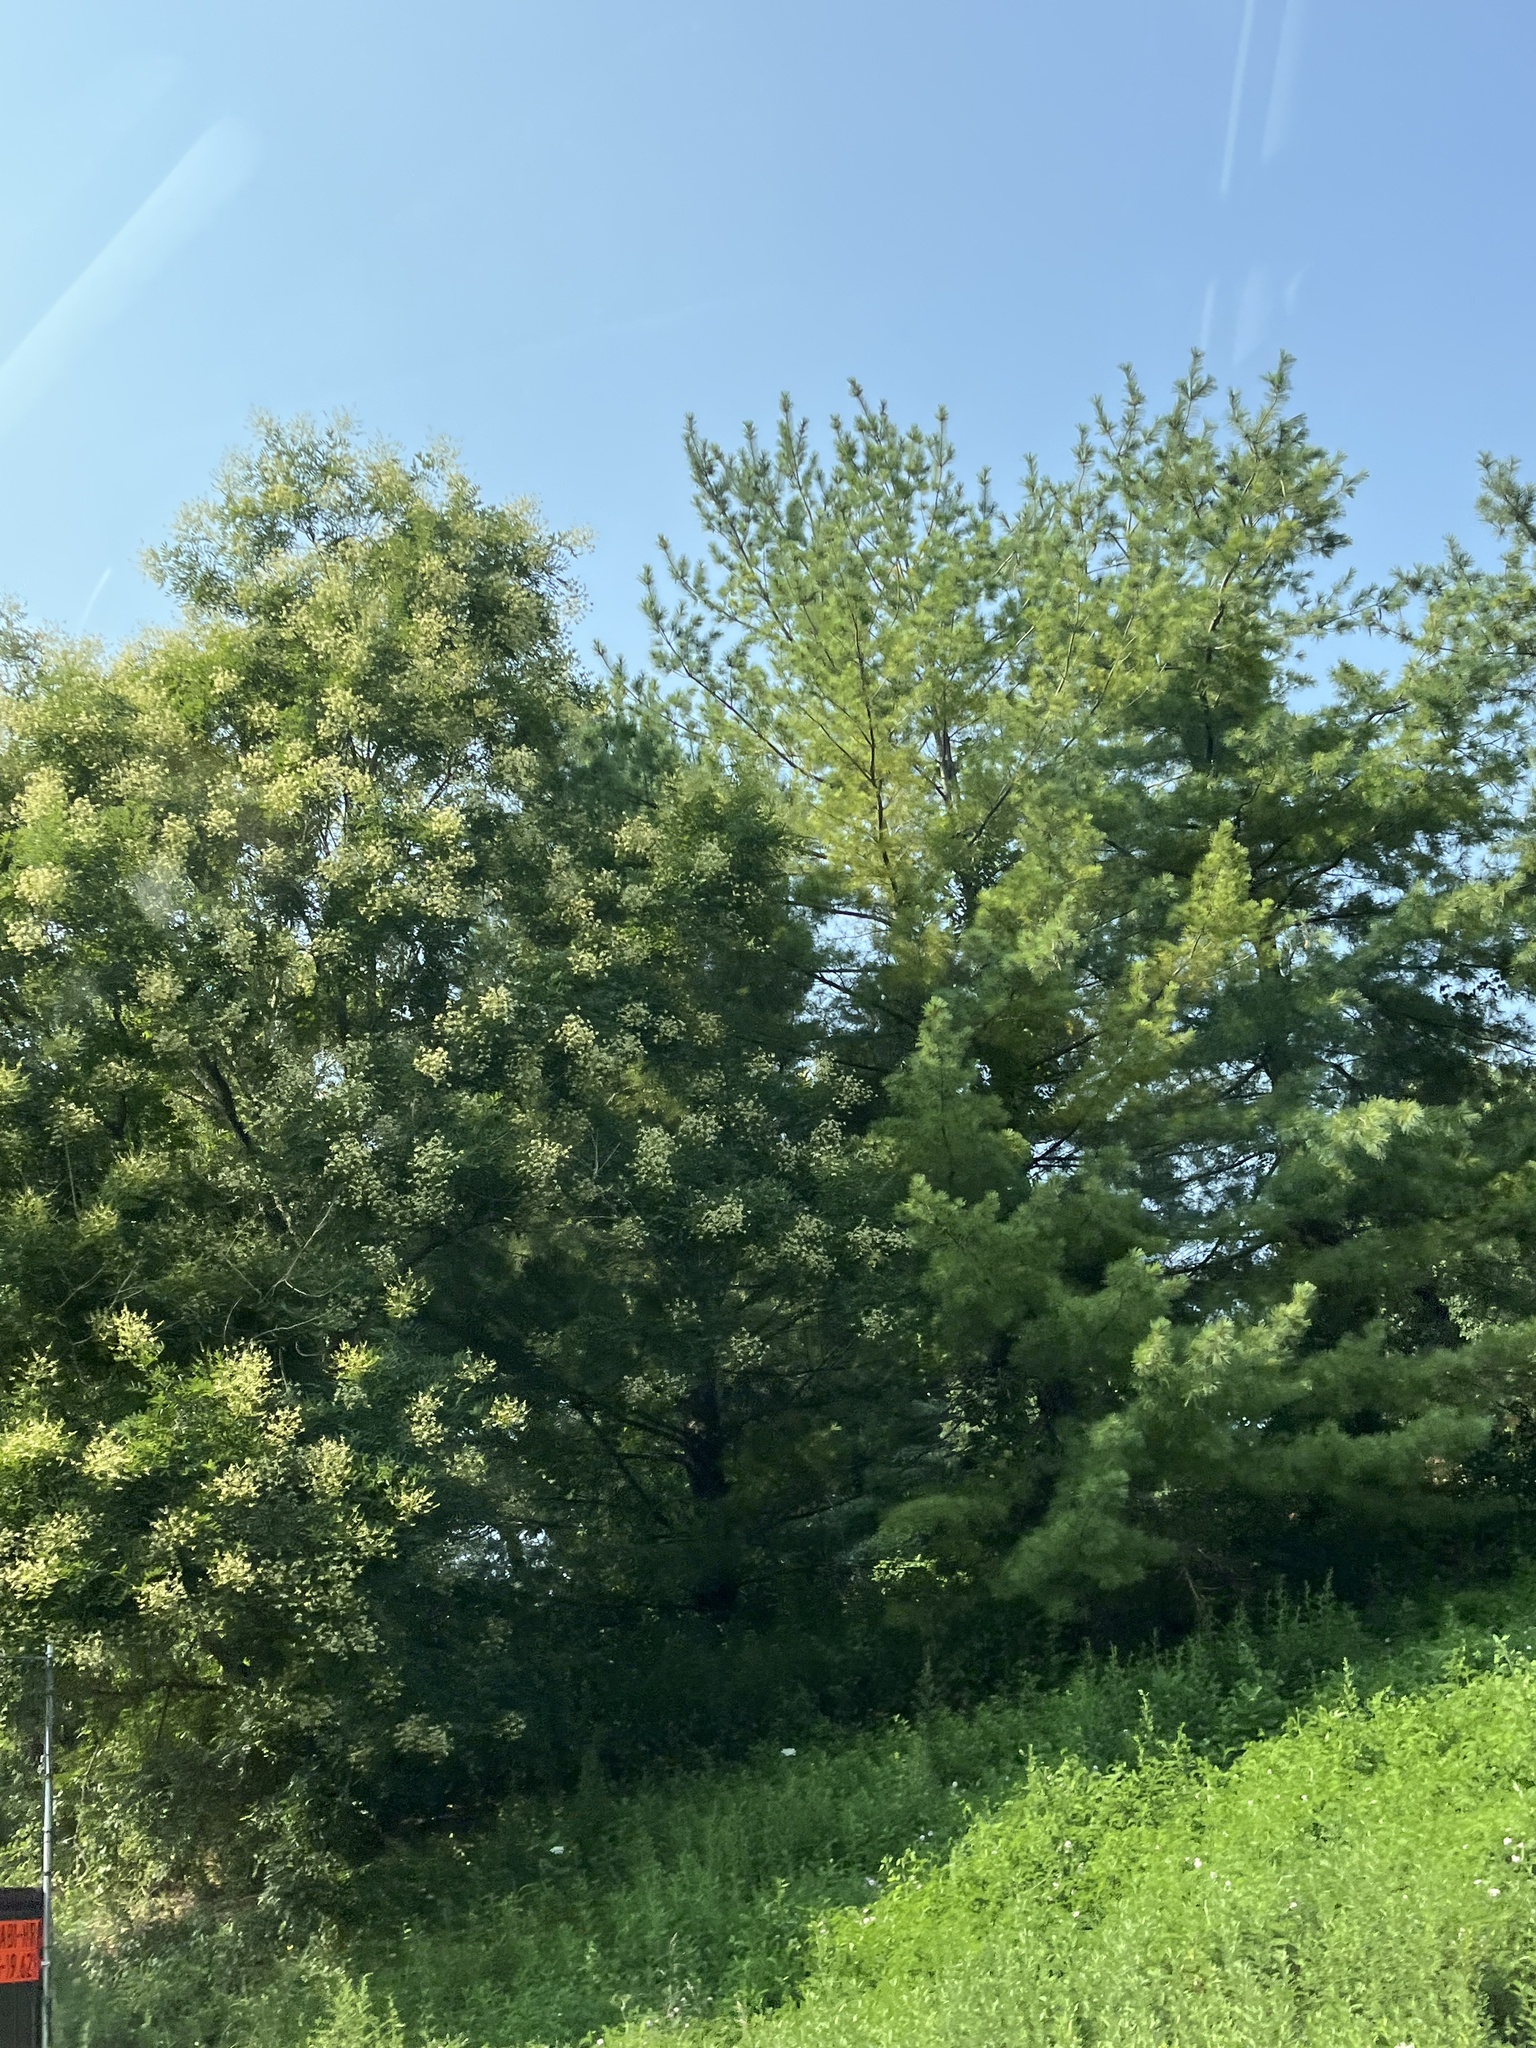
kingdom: Plantae
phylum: Tracheophyta
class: Pinopsida
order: Pinales
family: Pinaceae
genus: Pinus
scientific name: Pinus strobus
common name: Weymouth pine
